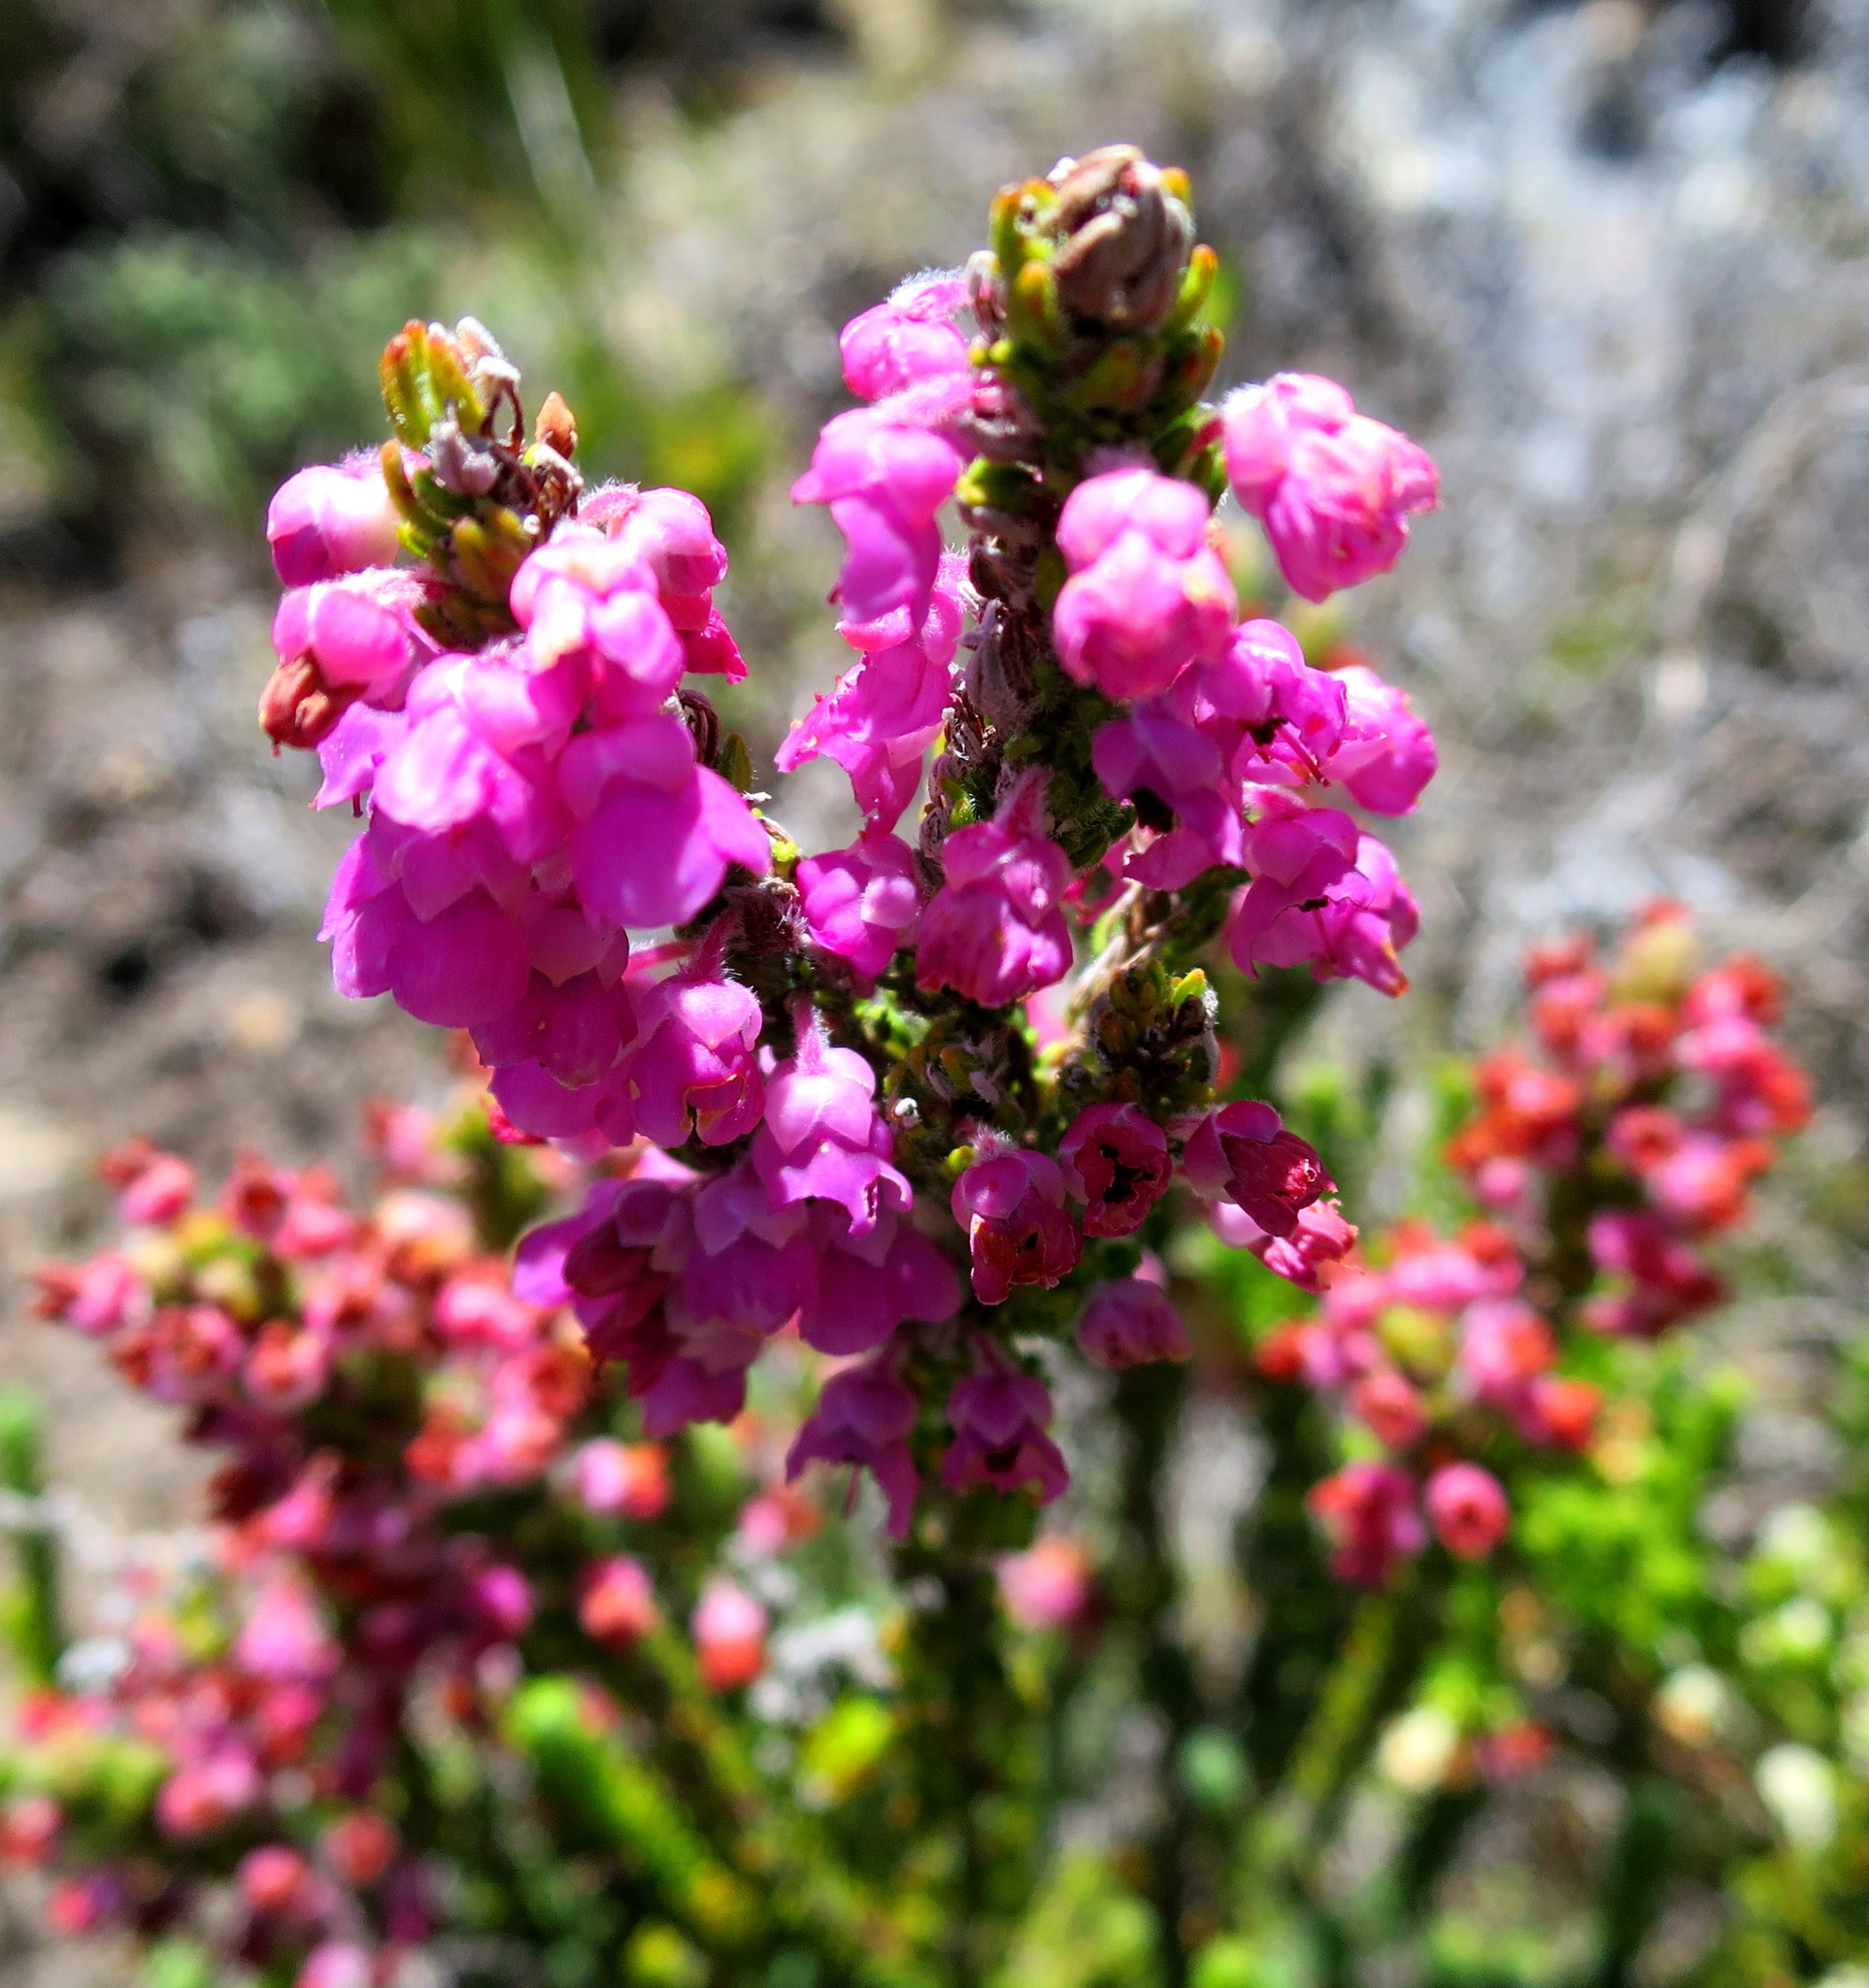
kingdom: Plantae
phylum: Tracheophyta
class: Magnoliopsida
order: Ericales
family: Ericaceae
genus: Erica
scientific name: Erica nervata
